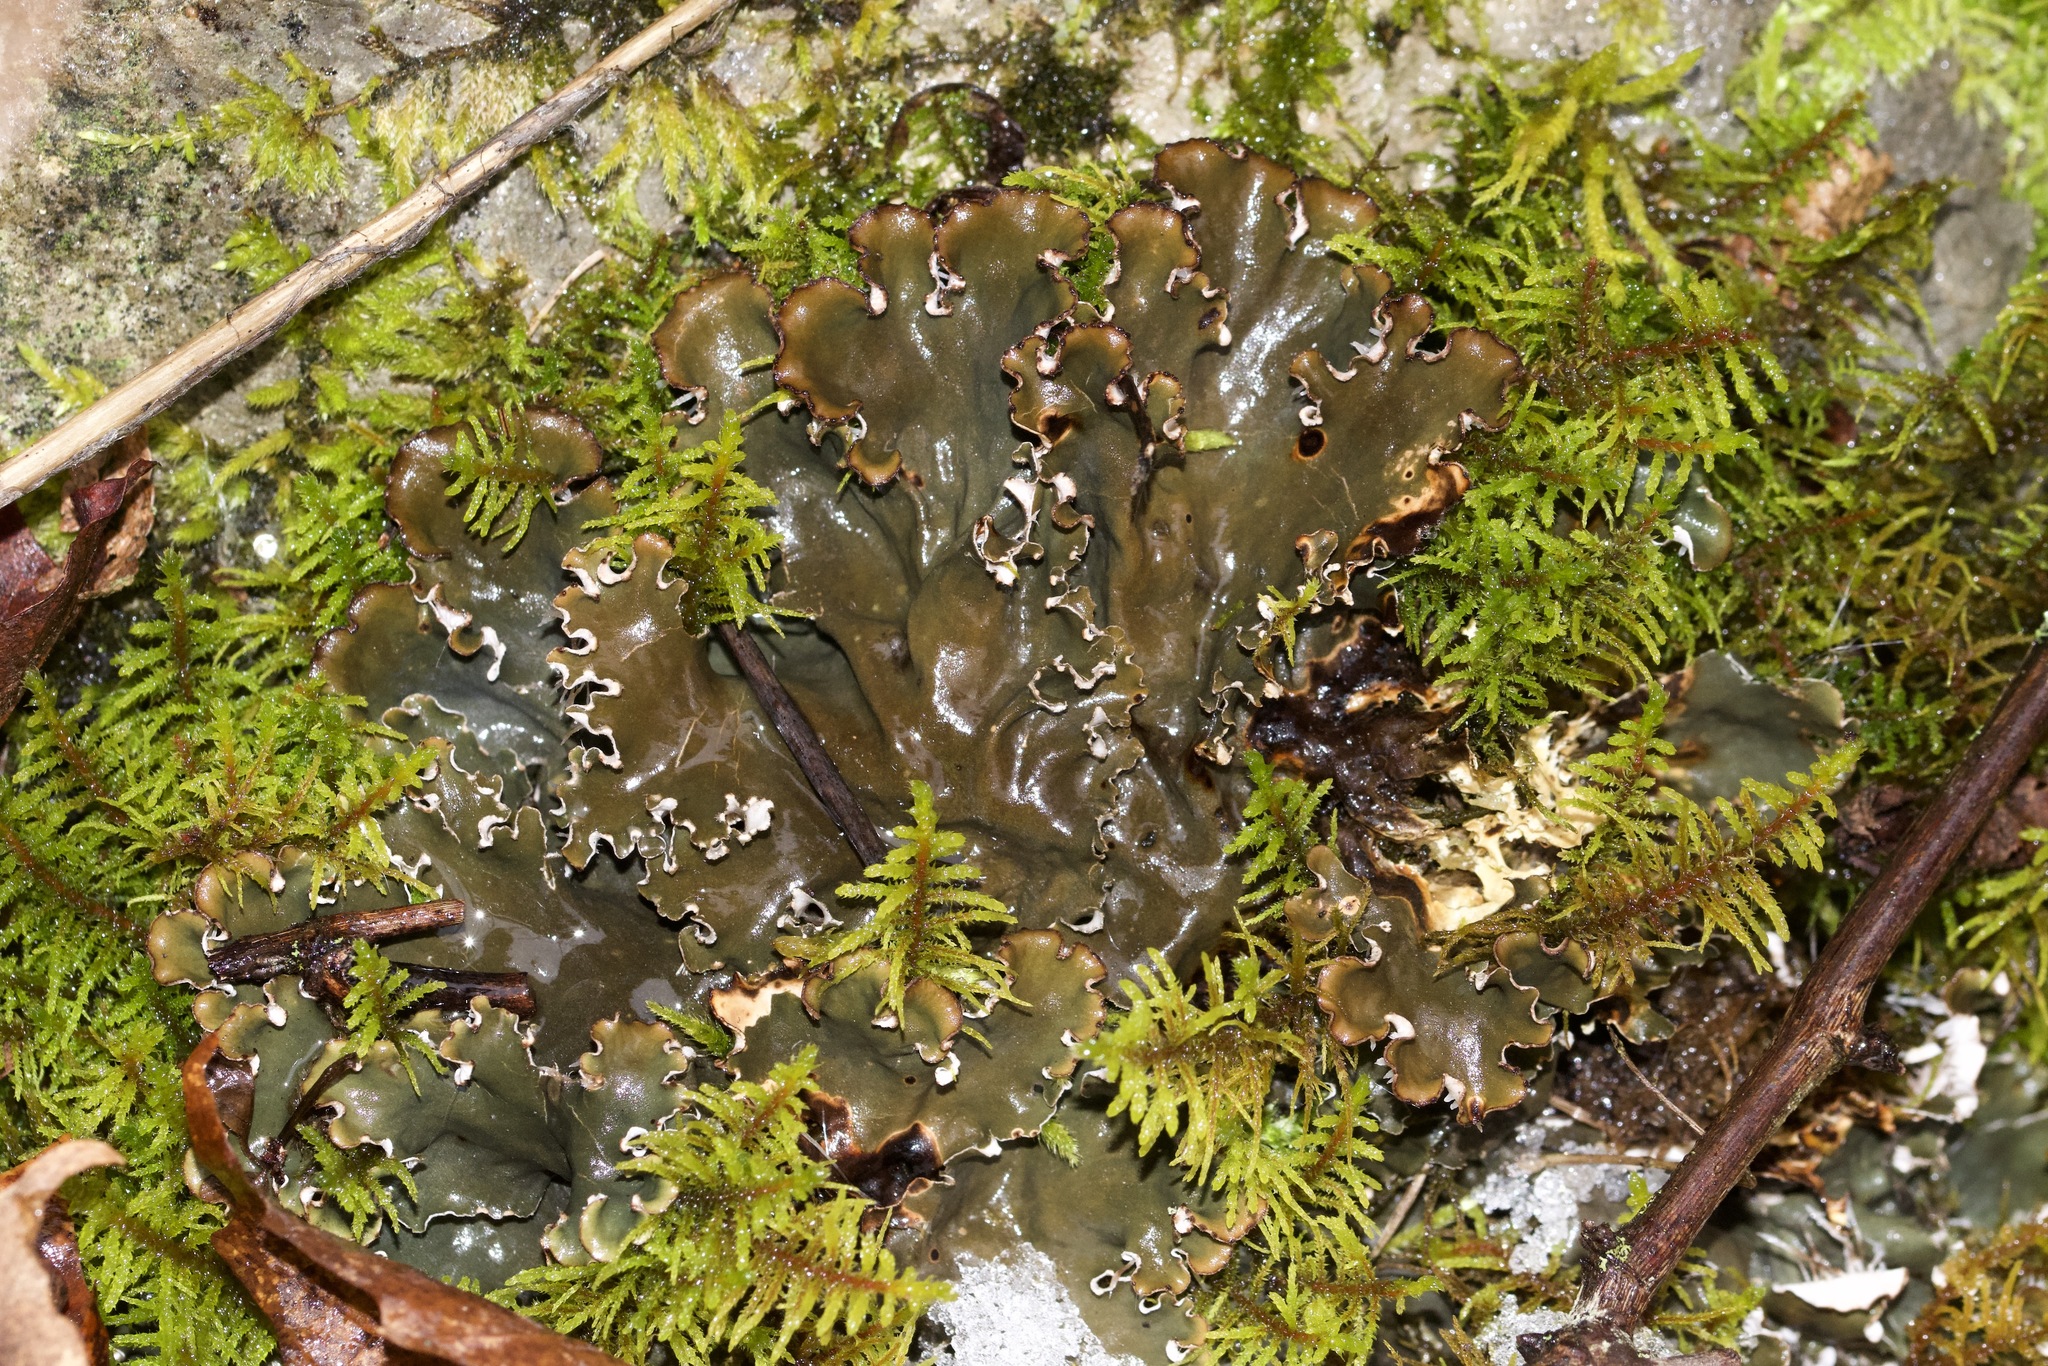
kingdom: Fungi
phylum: Ascomycota
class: Lecanoromycetes
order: Peltigerales
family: Peltigeraceae
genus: Peltigera
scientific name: Peltigera canina
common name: Dog pelt lichen
